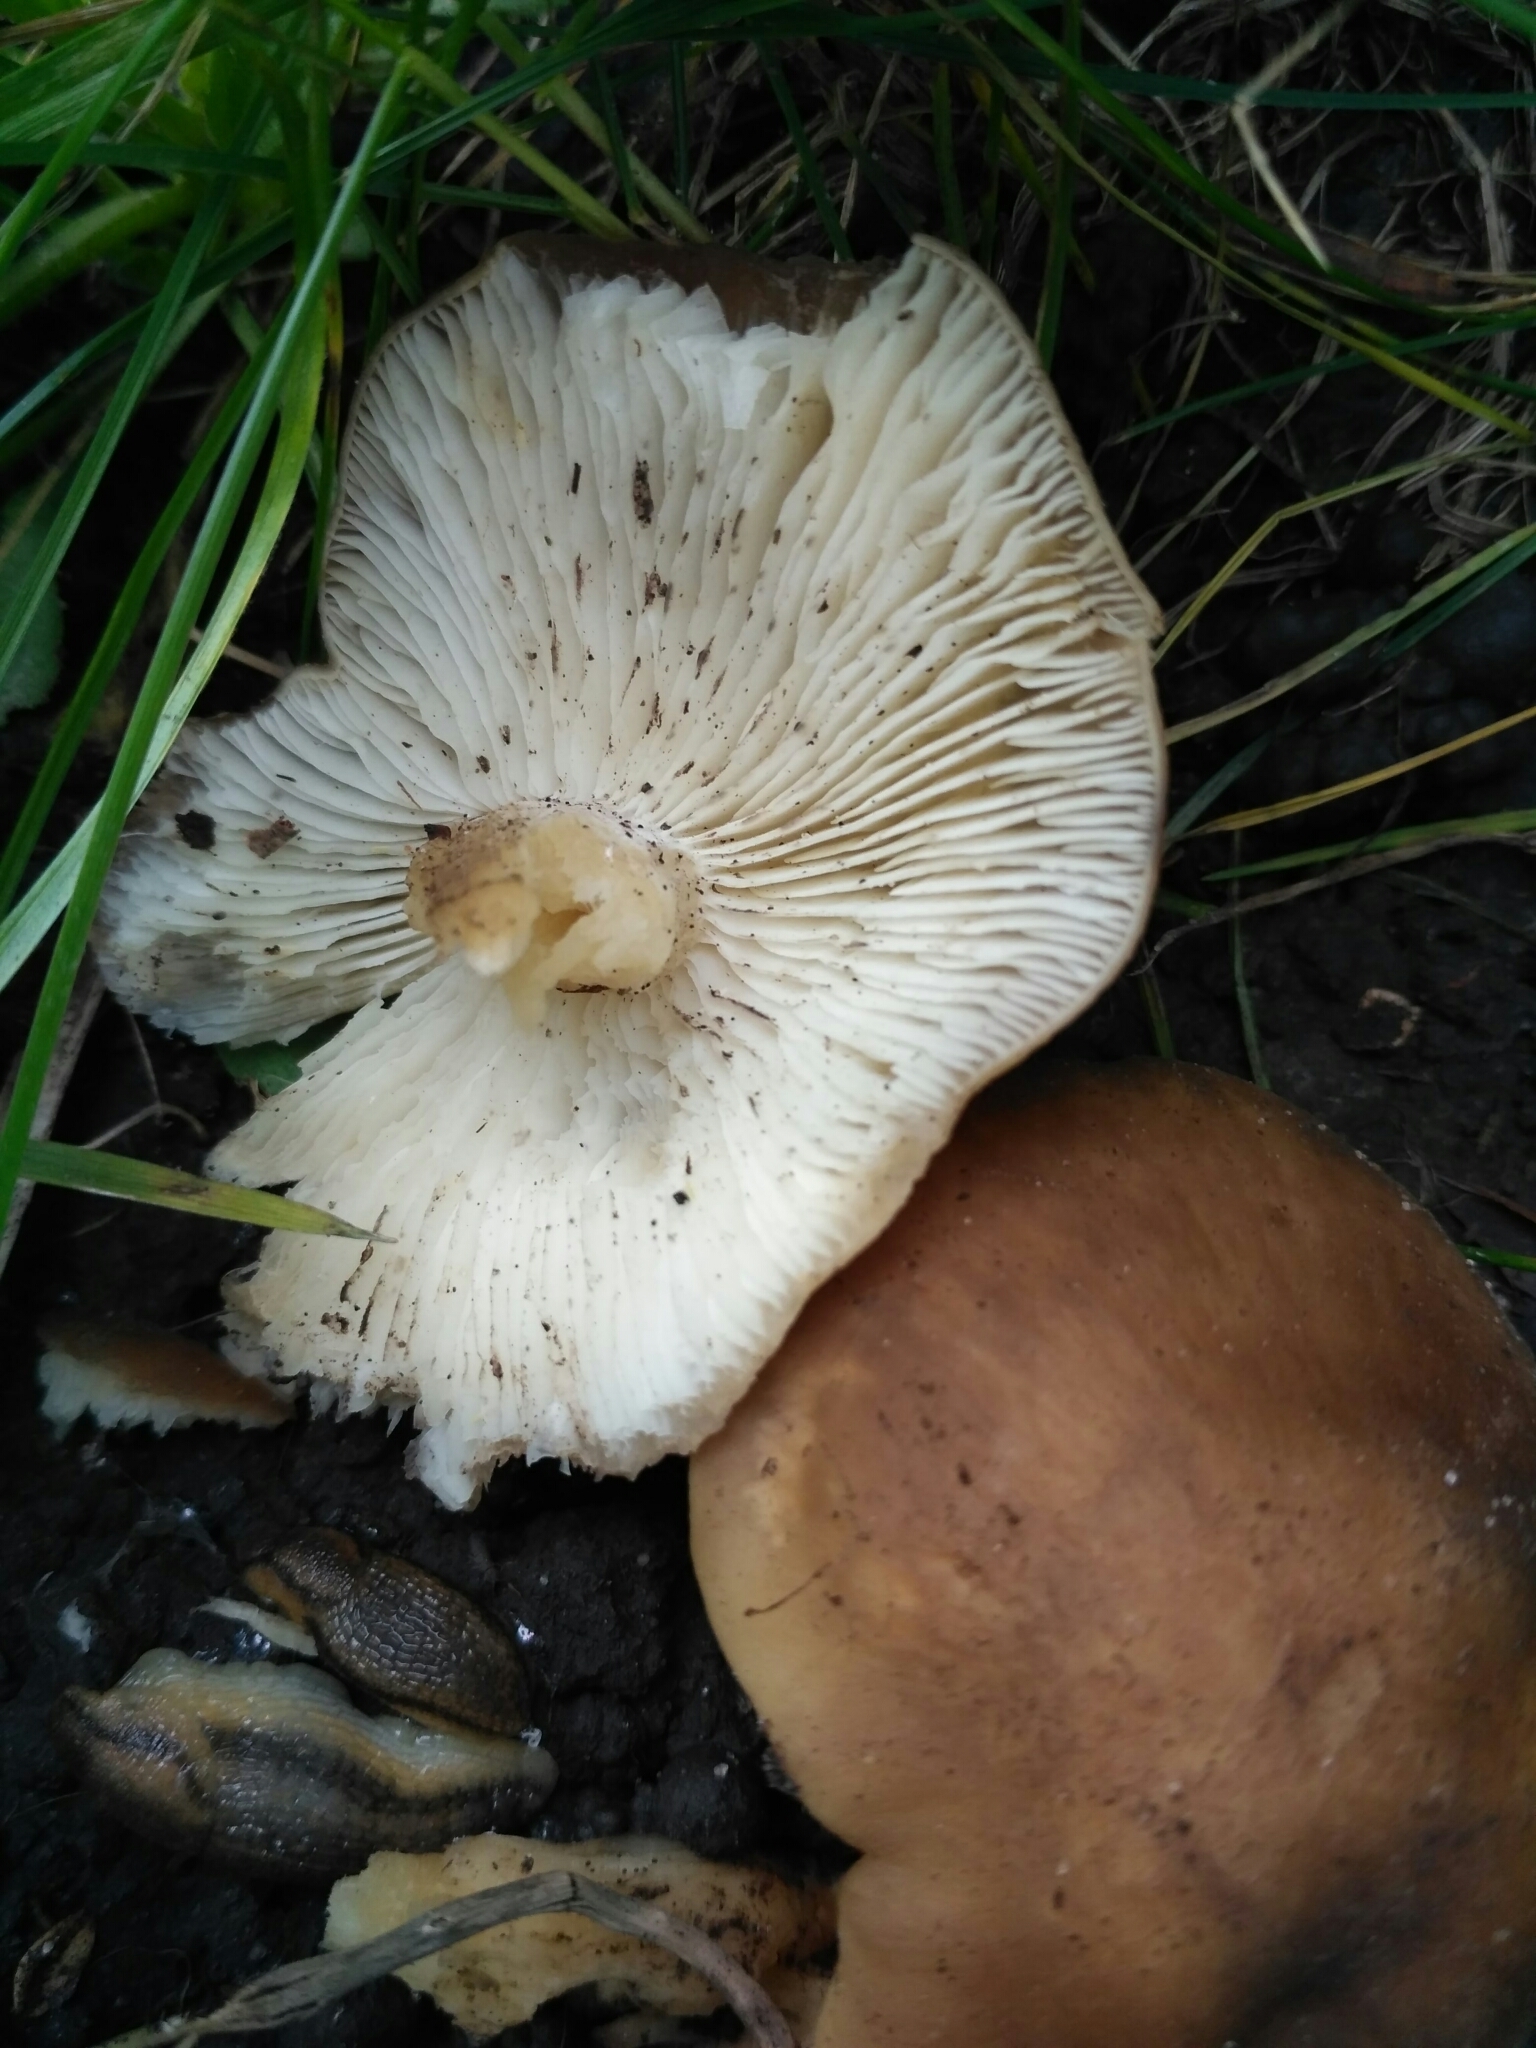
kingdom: Fungi
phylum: Basidiomycota
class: Agaricomycetes
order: Agaricales
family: Lyophyllaceae
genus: Lyophyllum
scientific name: Lyophyllum decastes
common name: Clustered domecap
